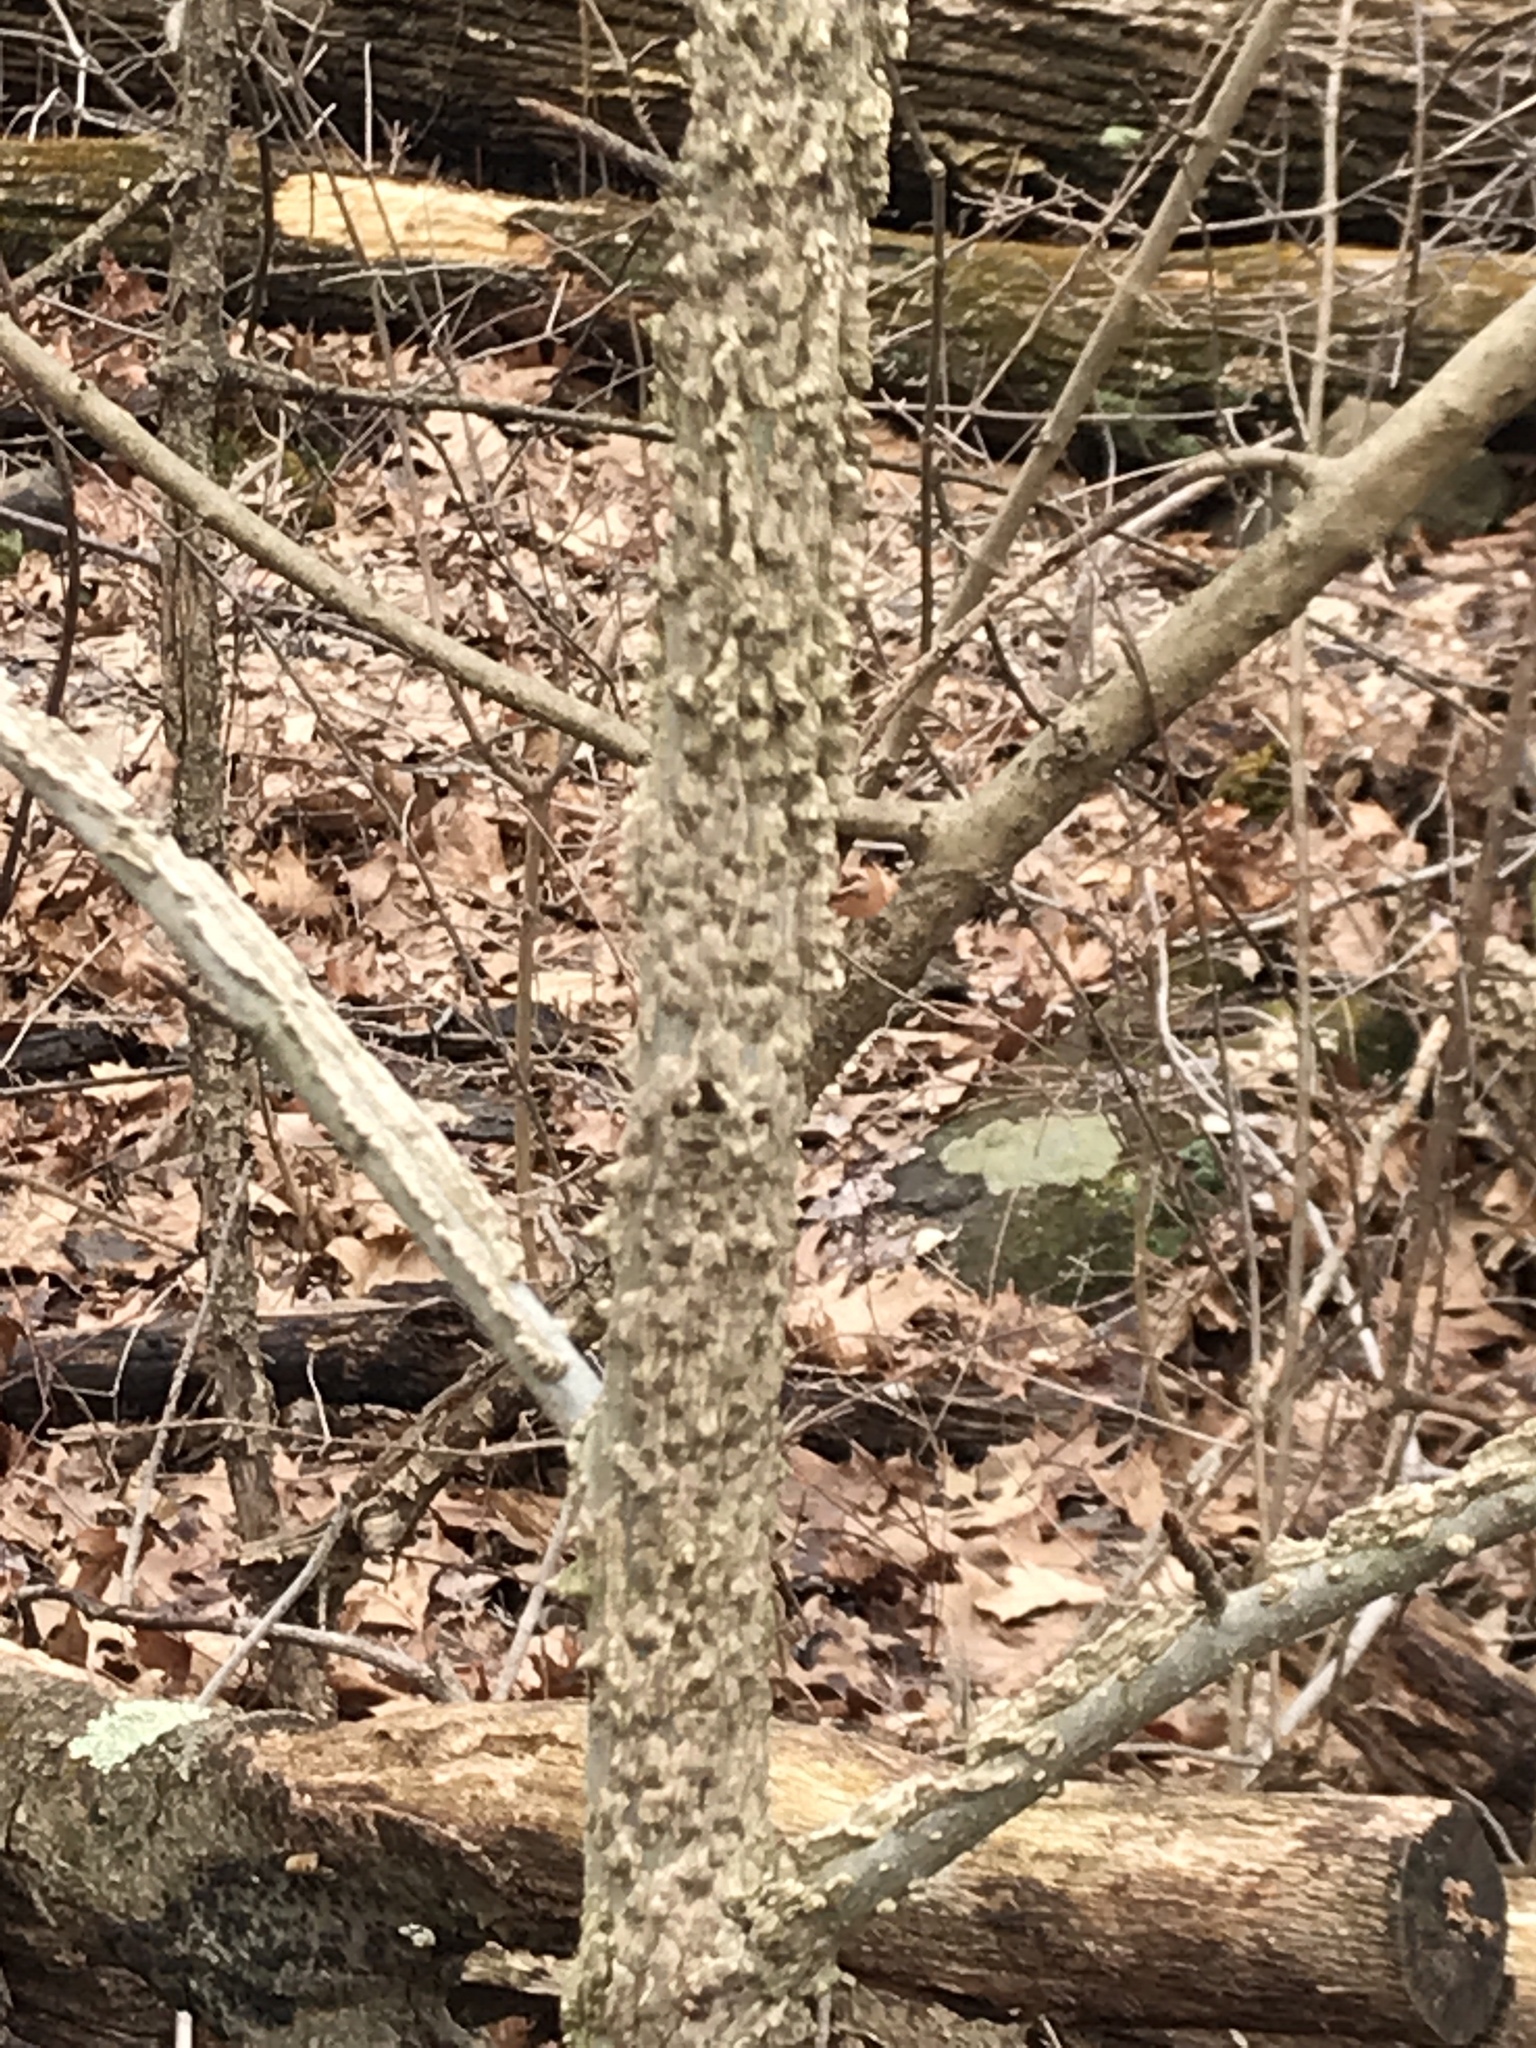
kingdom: Plantae
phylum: Tracheophyta
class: Magnoliopsida
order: Saxifragales
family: Altingiaceae
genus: Liquidambar
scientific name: Liquidambar styraciflua
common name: Sweet gum
